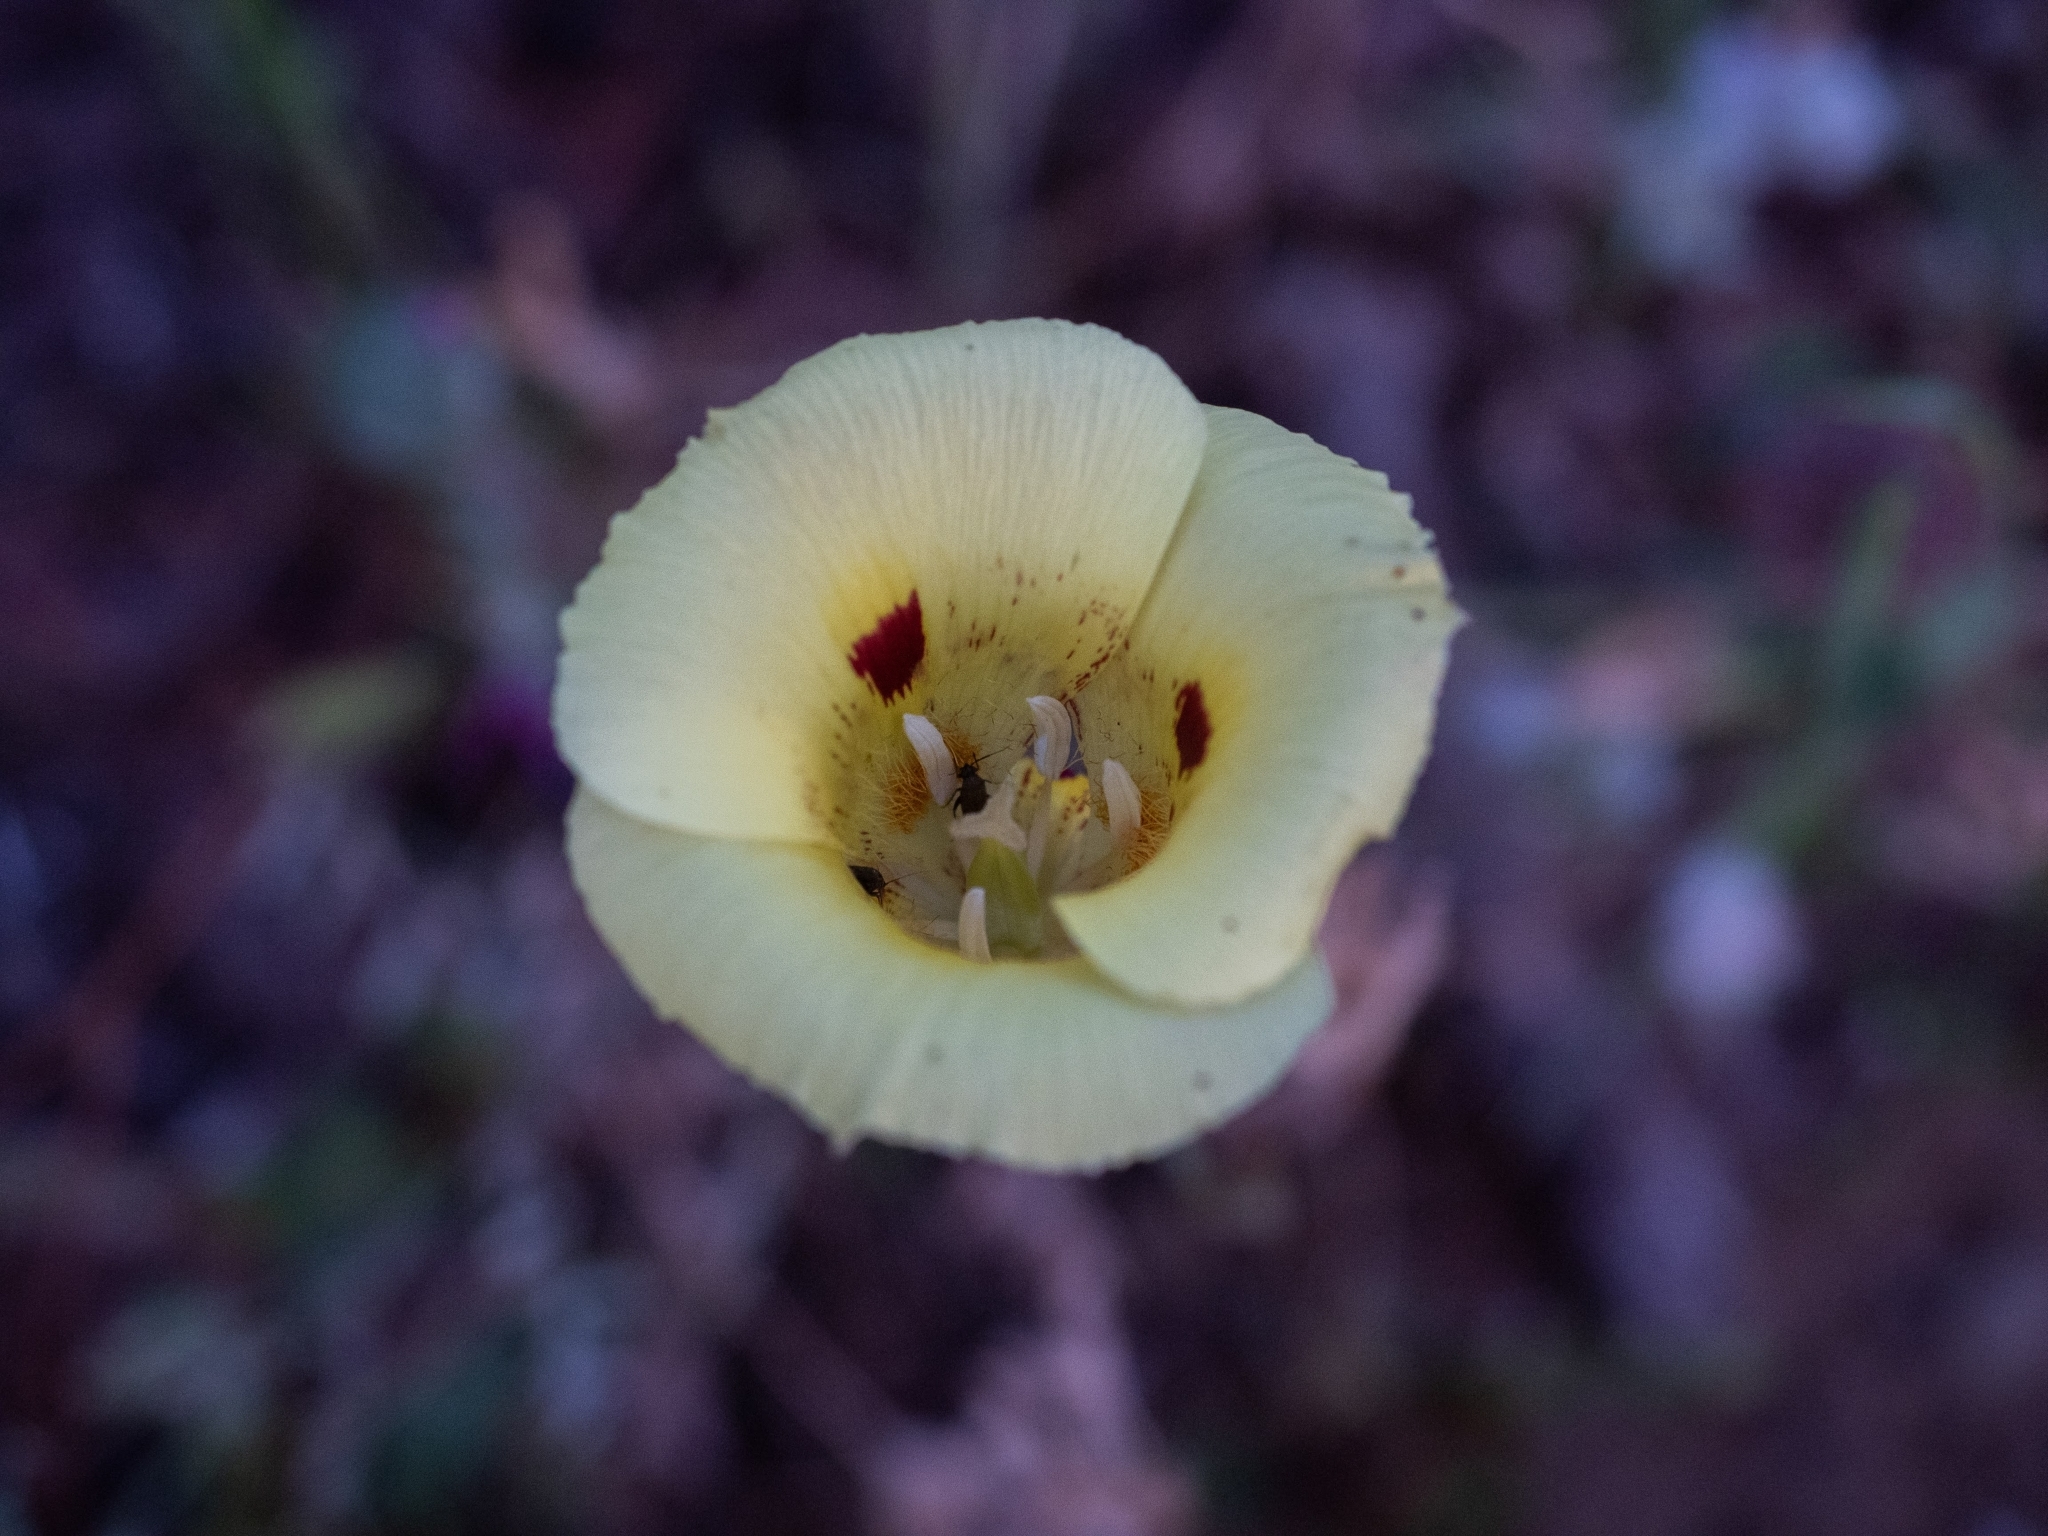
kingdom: Plantae
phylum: Tracheophyta
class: Liliopsida
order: Liliales
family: Liliaceae
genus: Calochortus
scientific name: Calochortus luteus
